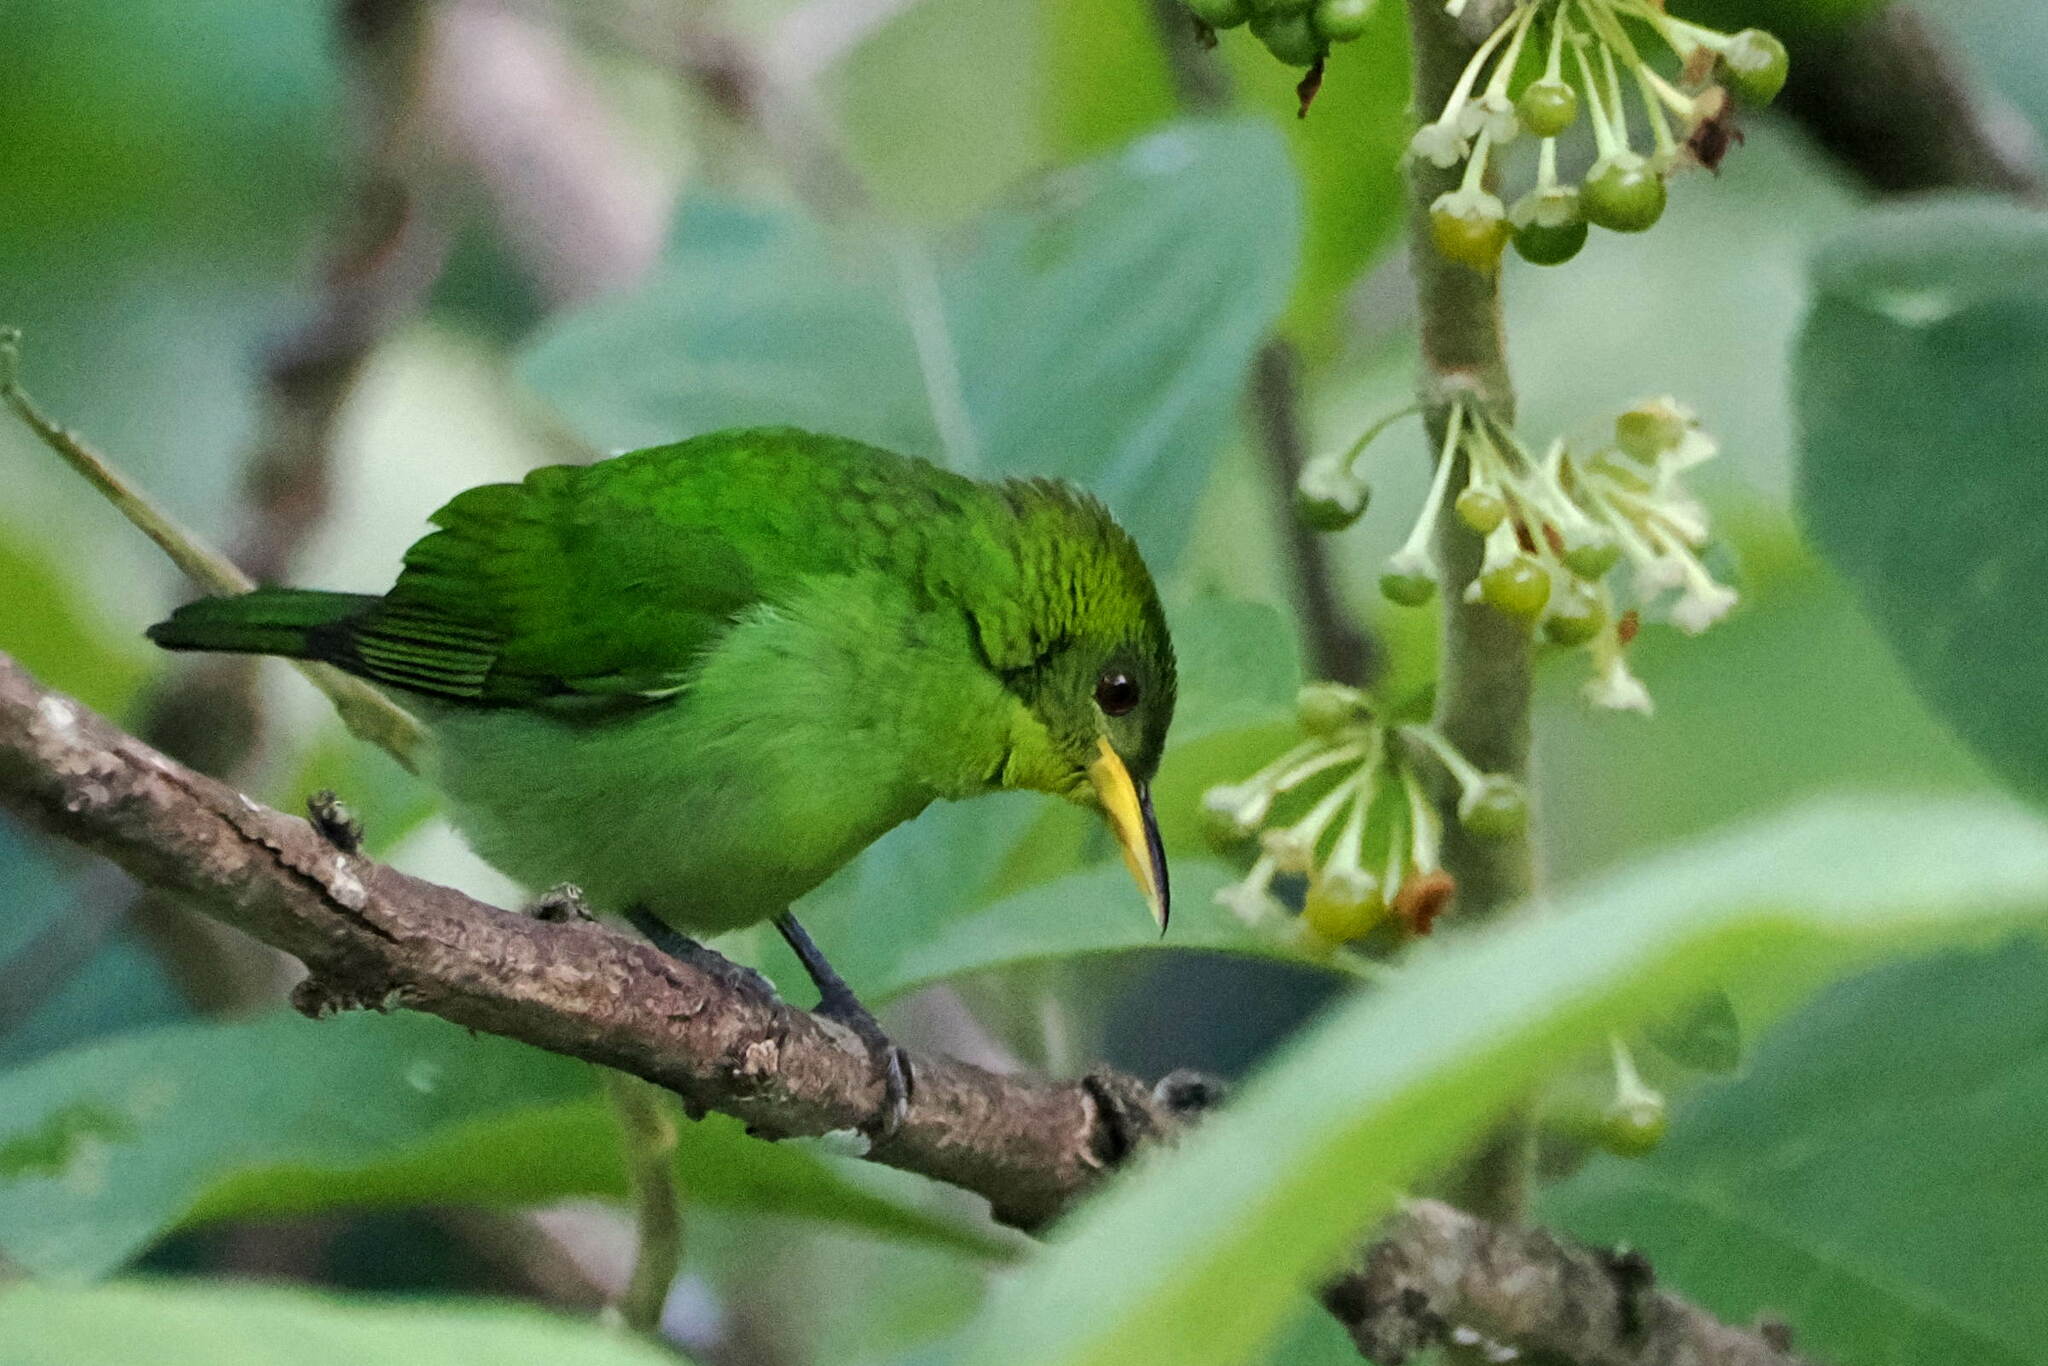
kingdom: Animalia
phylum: Chordata
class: Aves
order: Passeriformes
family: Thraupidae
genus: Chlorophanes
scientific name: Chlorophanes spiza
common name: Green honeycreeper
